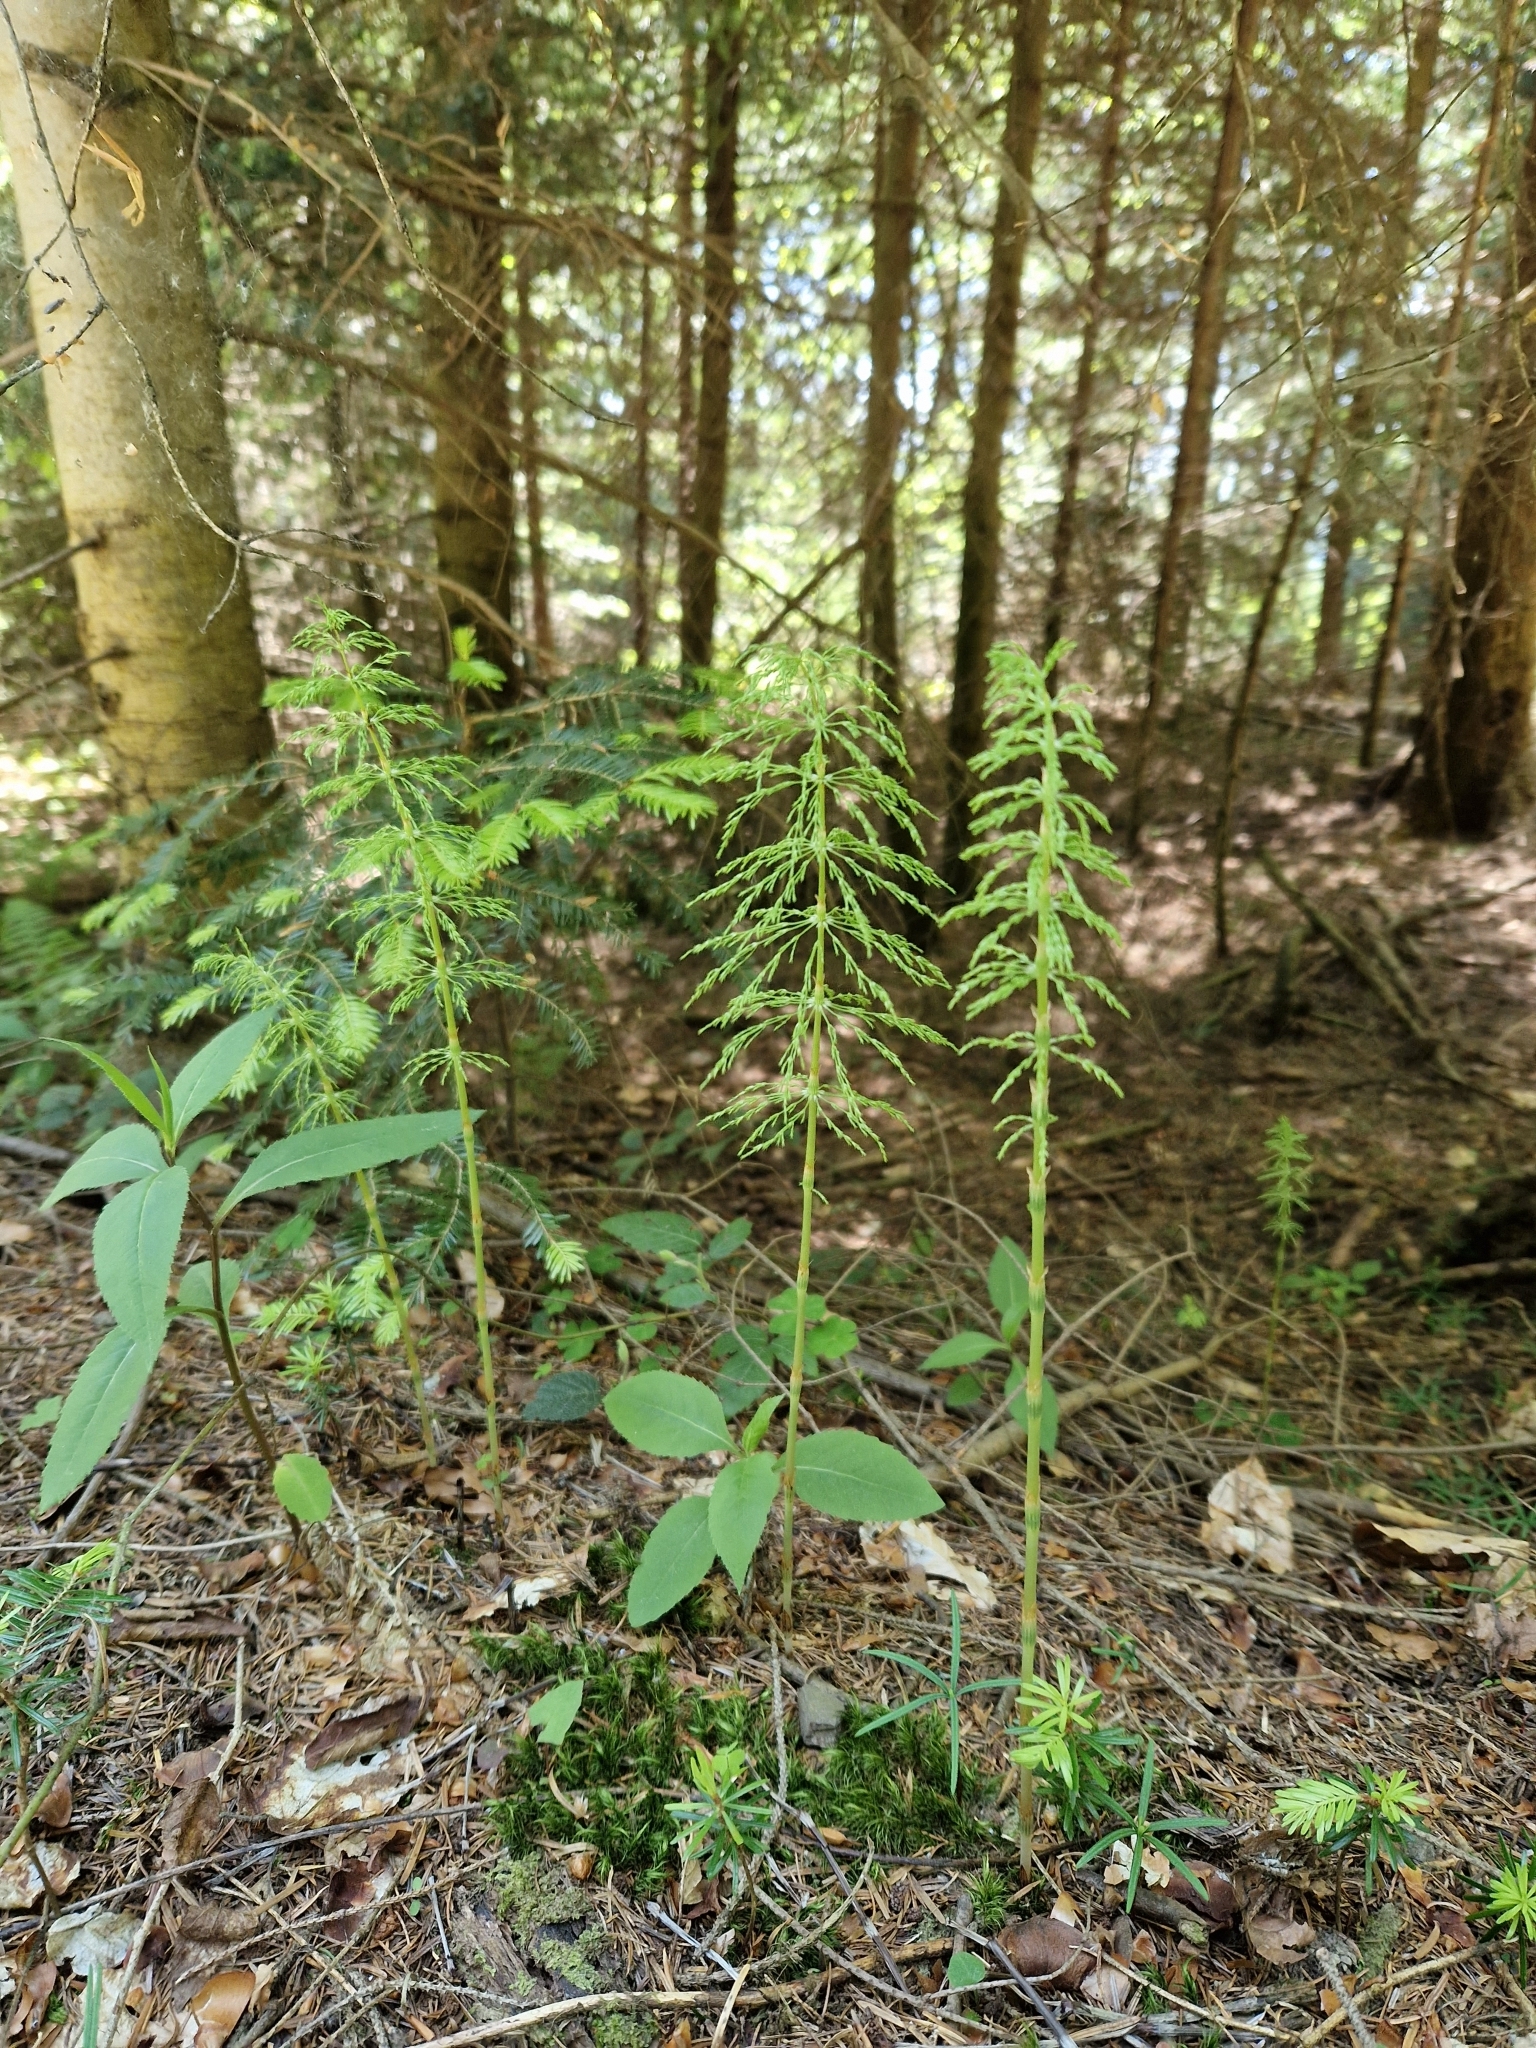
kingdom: Plantae
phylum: Tracheophyta
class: Polypodiopsida
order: Equisetales
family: Equisetaceae
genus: Equisetum
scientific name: Equisetum sylvaticum
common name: Wood horsetail
